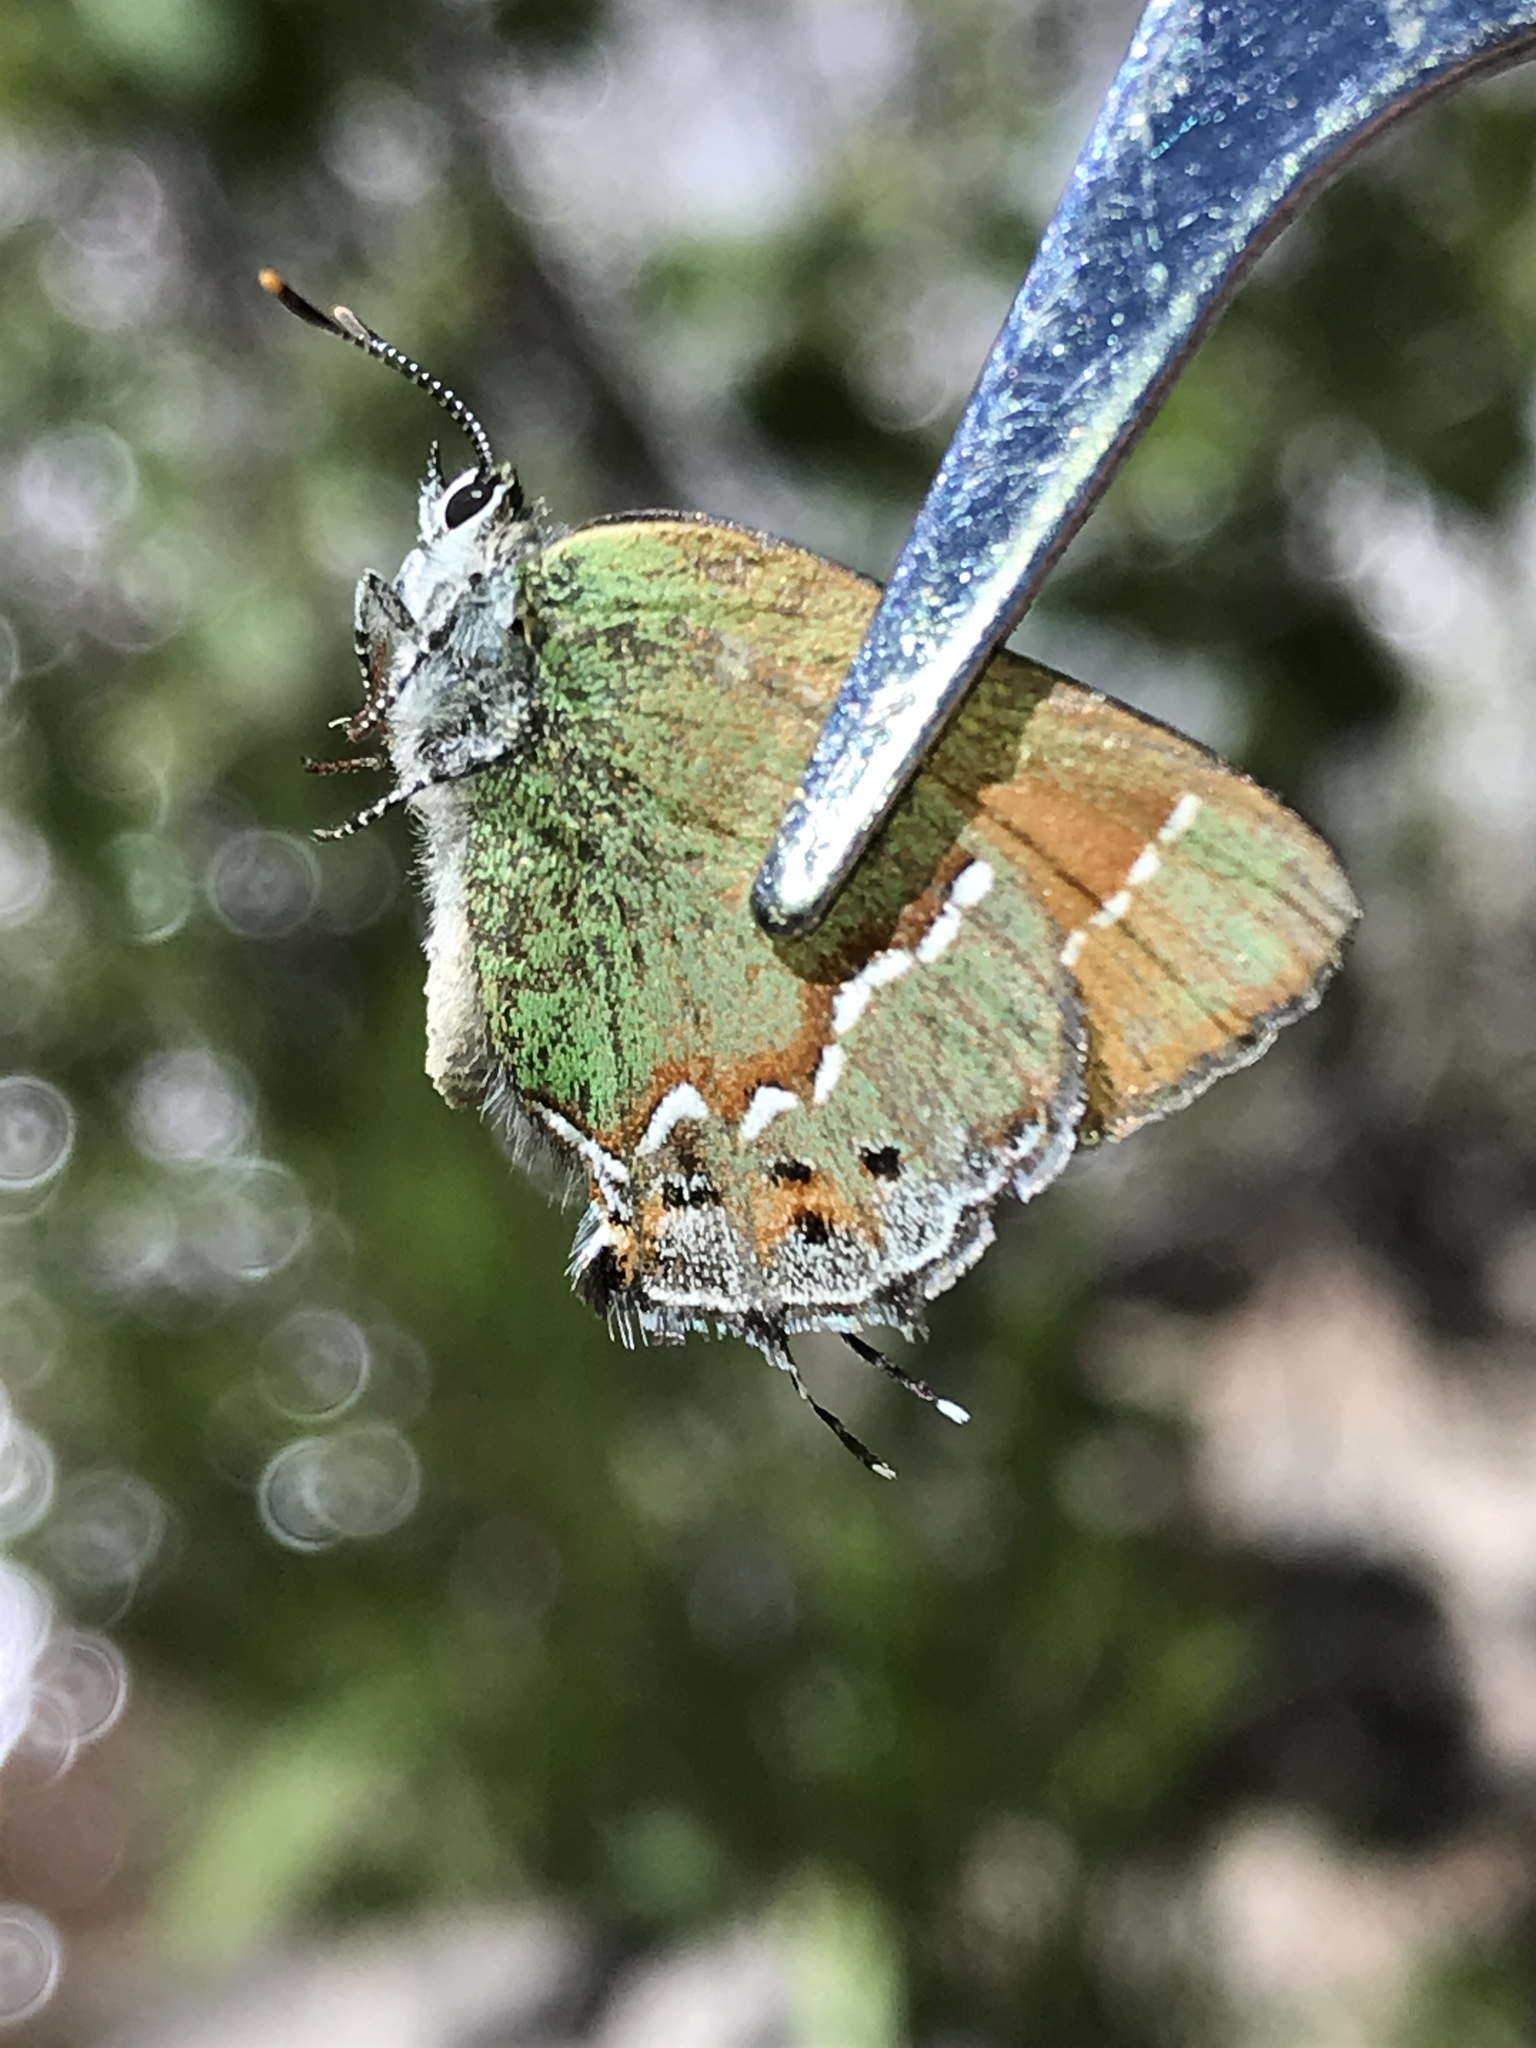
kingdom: Animalia
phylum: Arthropoda
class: Insecta
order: Lepidoptera
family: Lycaenidae
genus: Mitoura
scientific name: Mitoura siva
